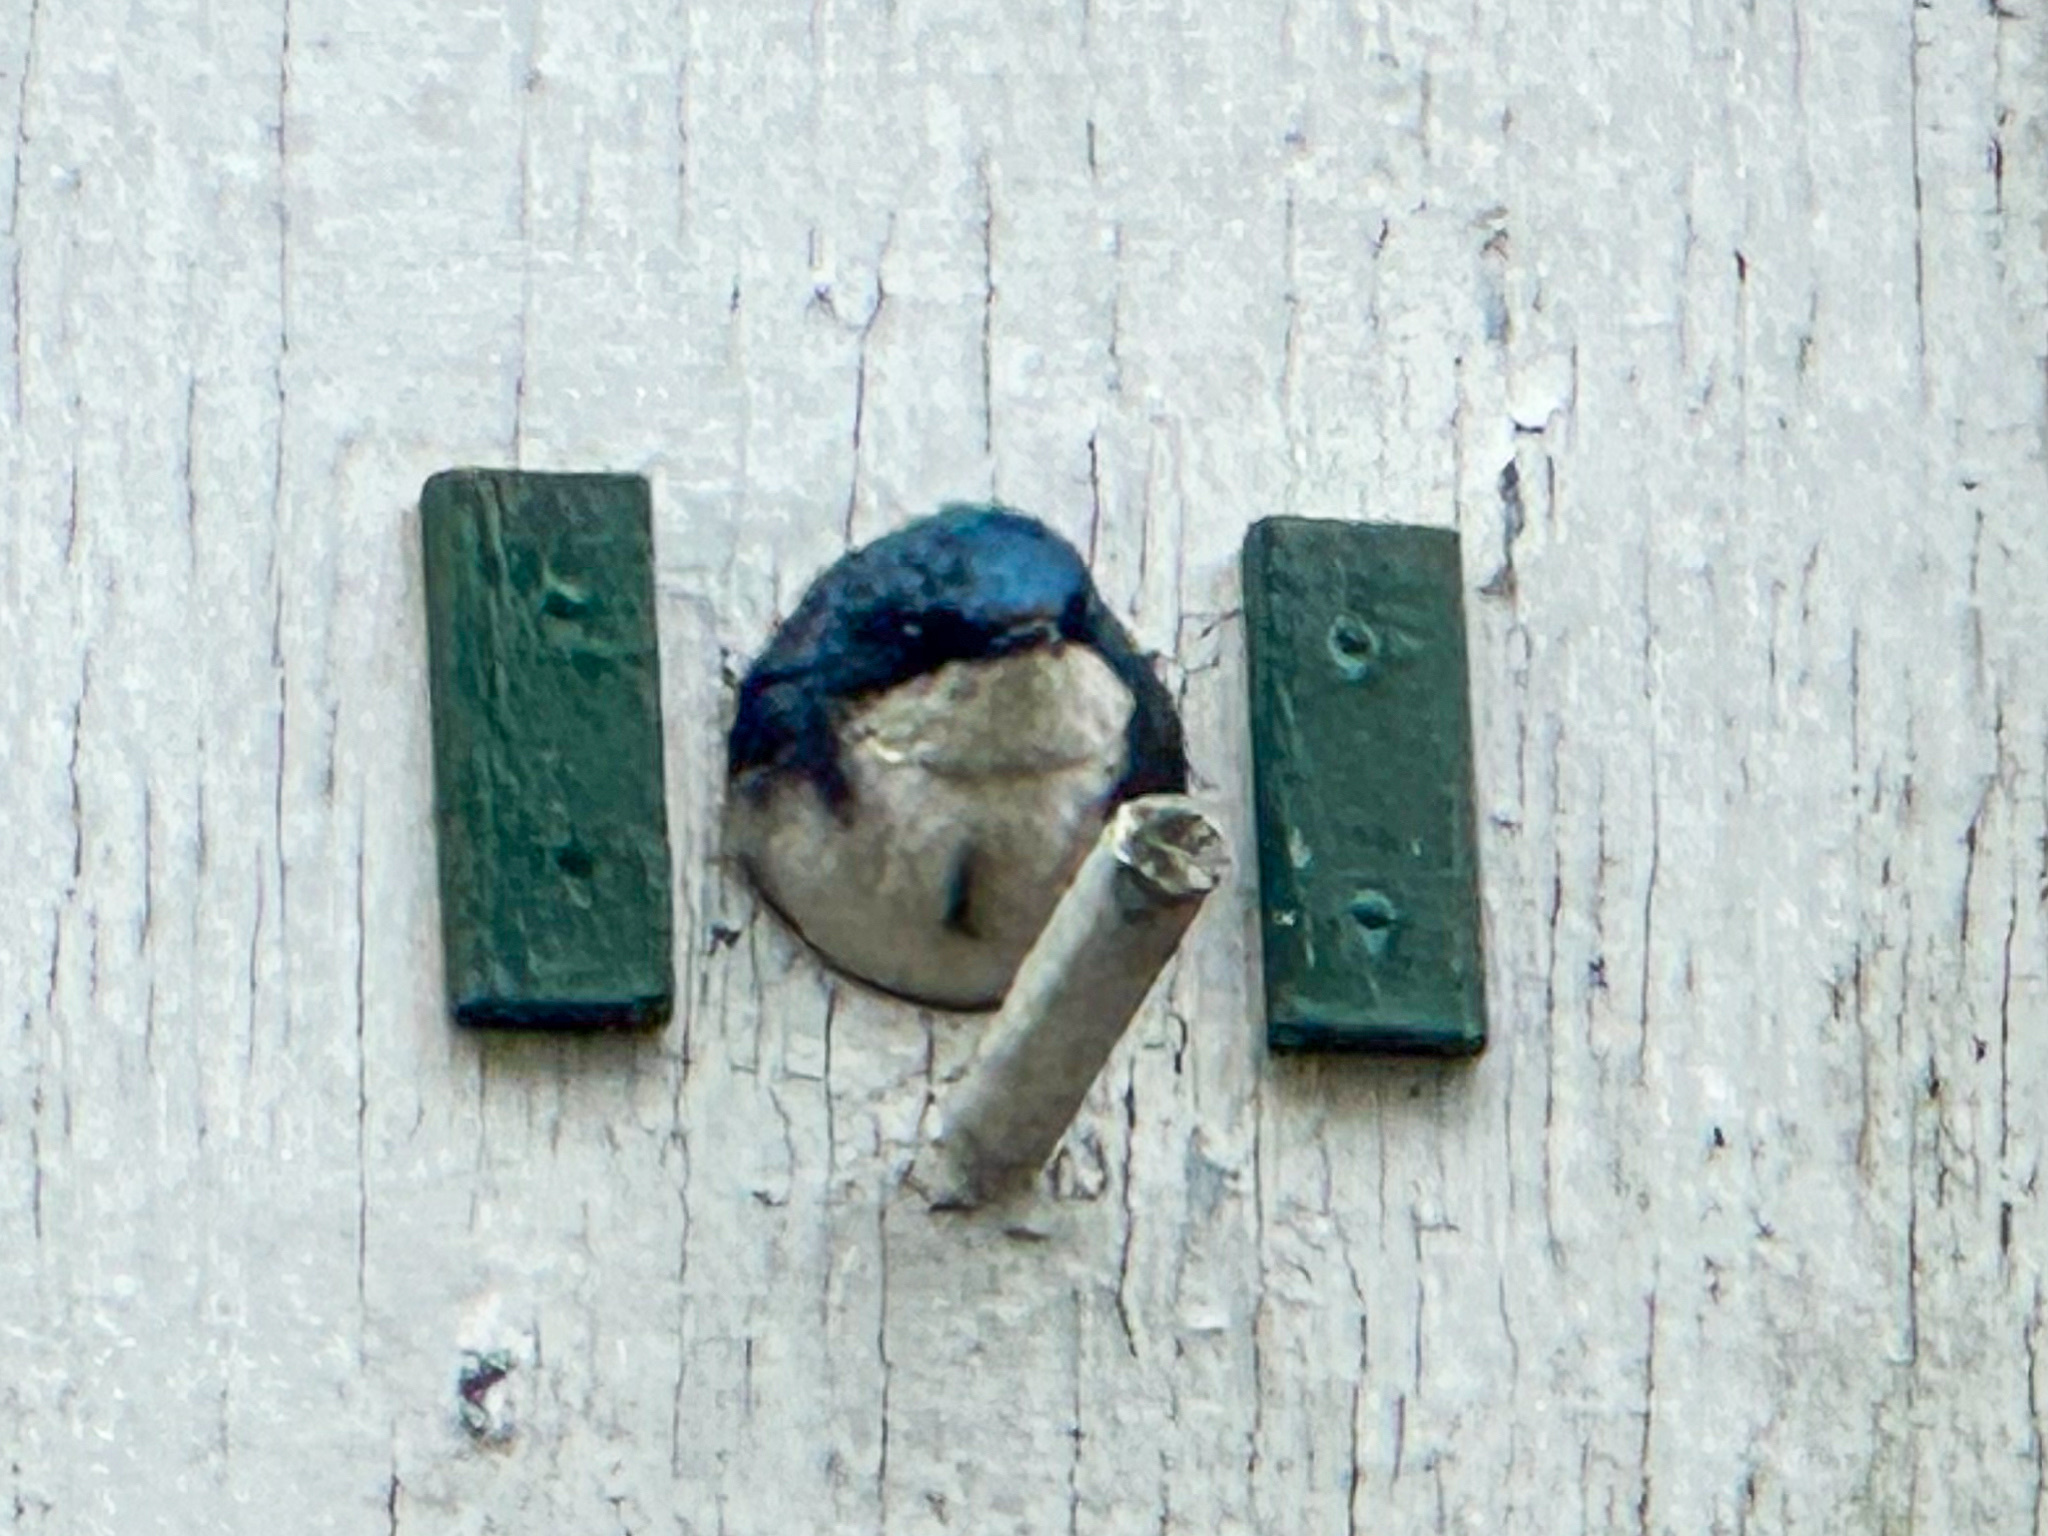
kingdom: Animalia
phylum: Chordata
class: Aves
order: Passeriformes
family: Hirundinidae
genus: Tachycineta
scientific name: Tachycineta bicolor
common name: Tree swallow
